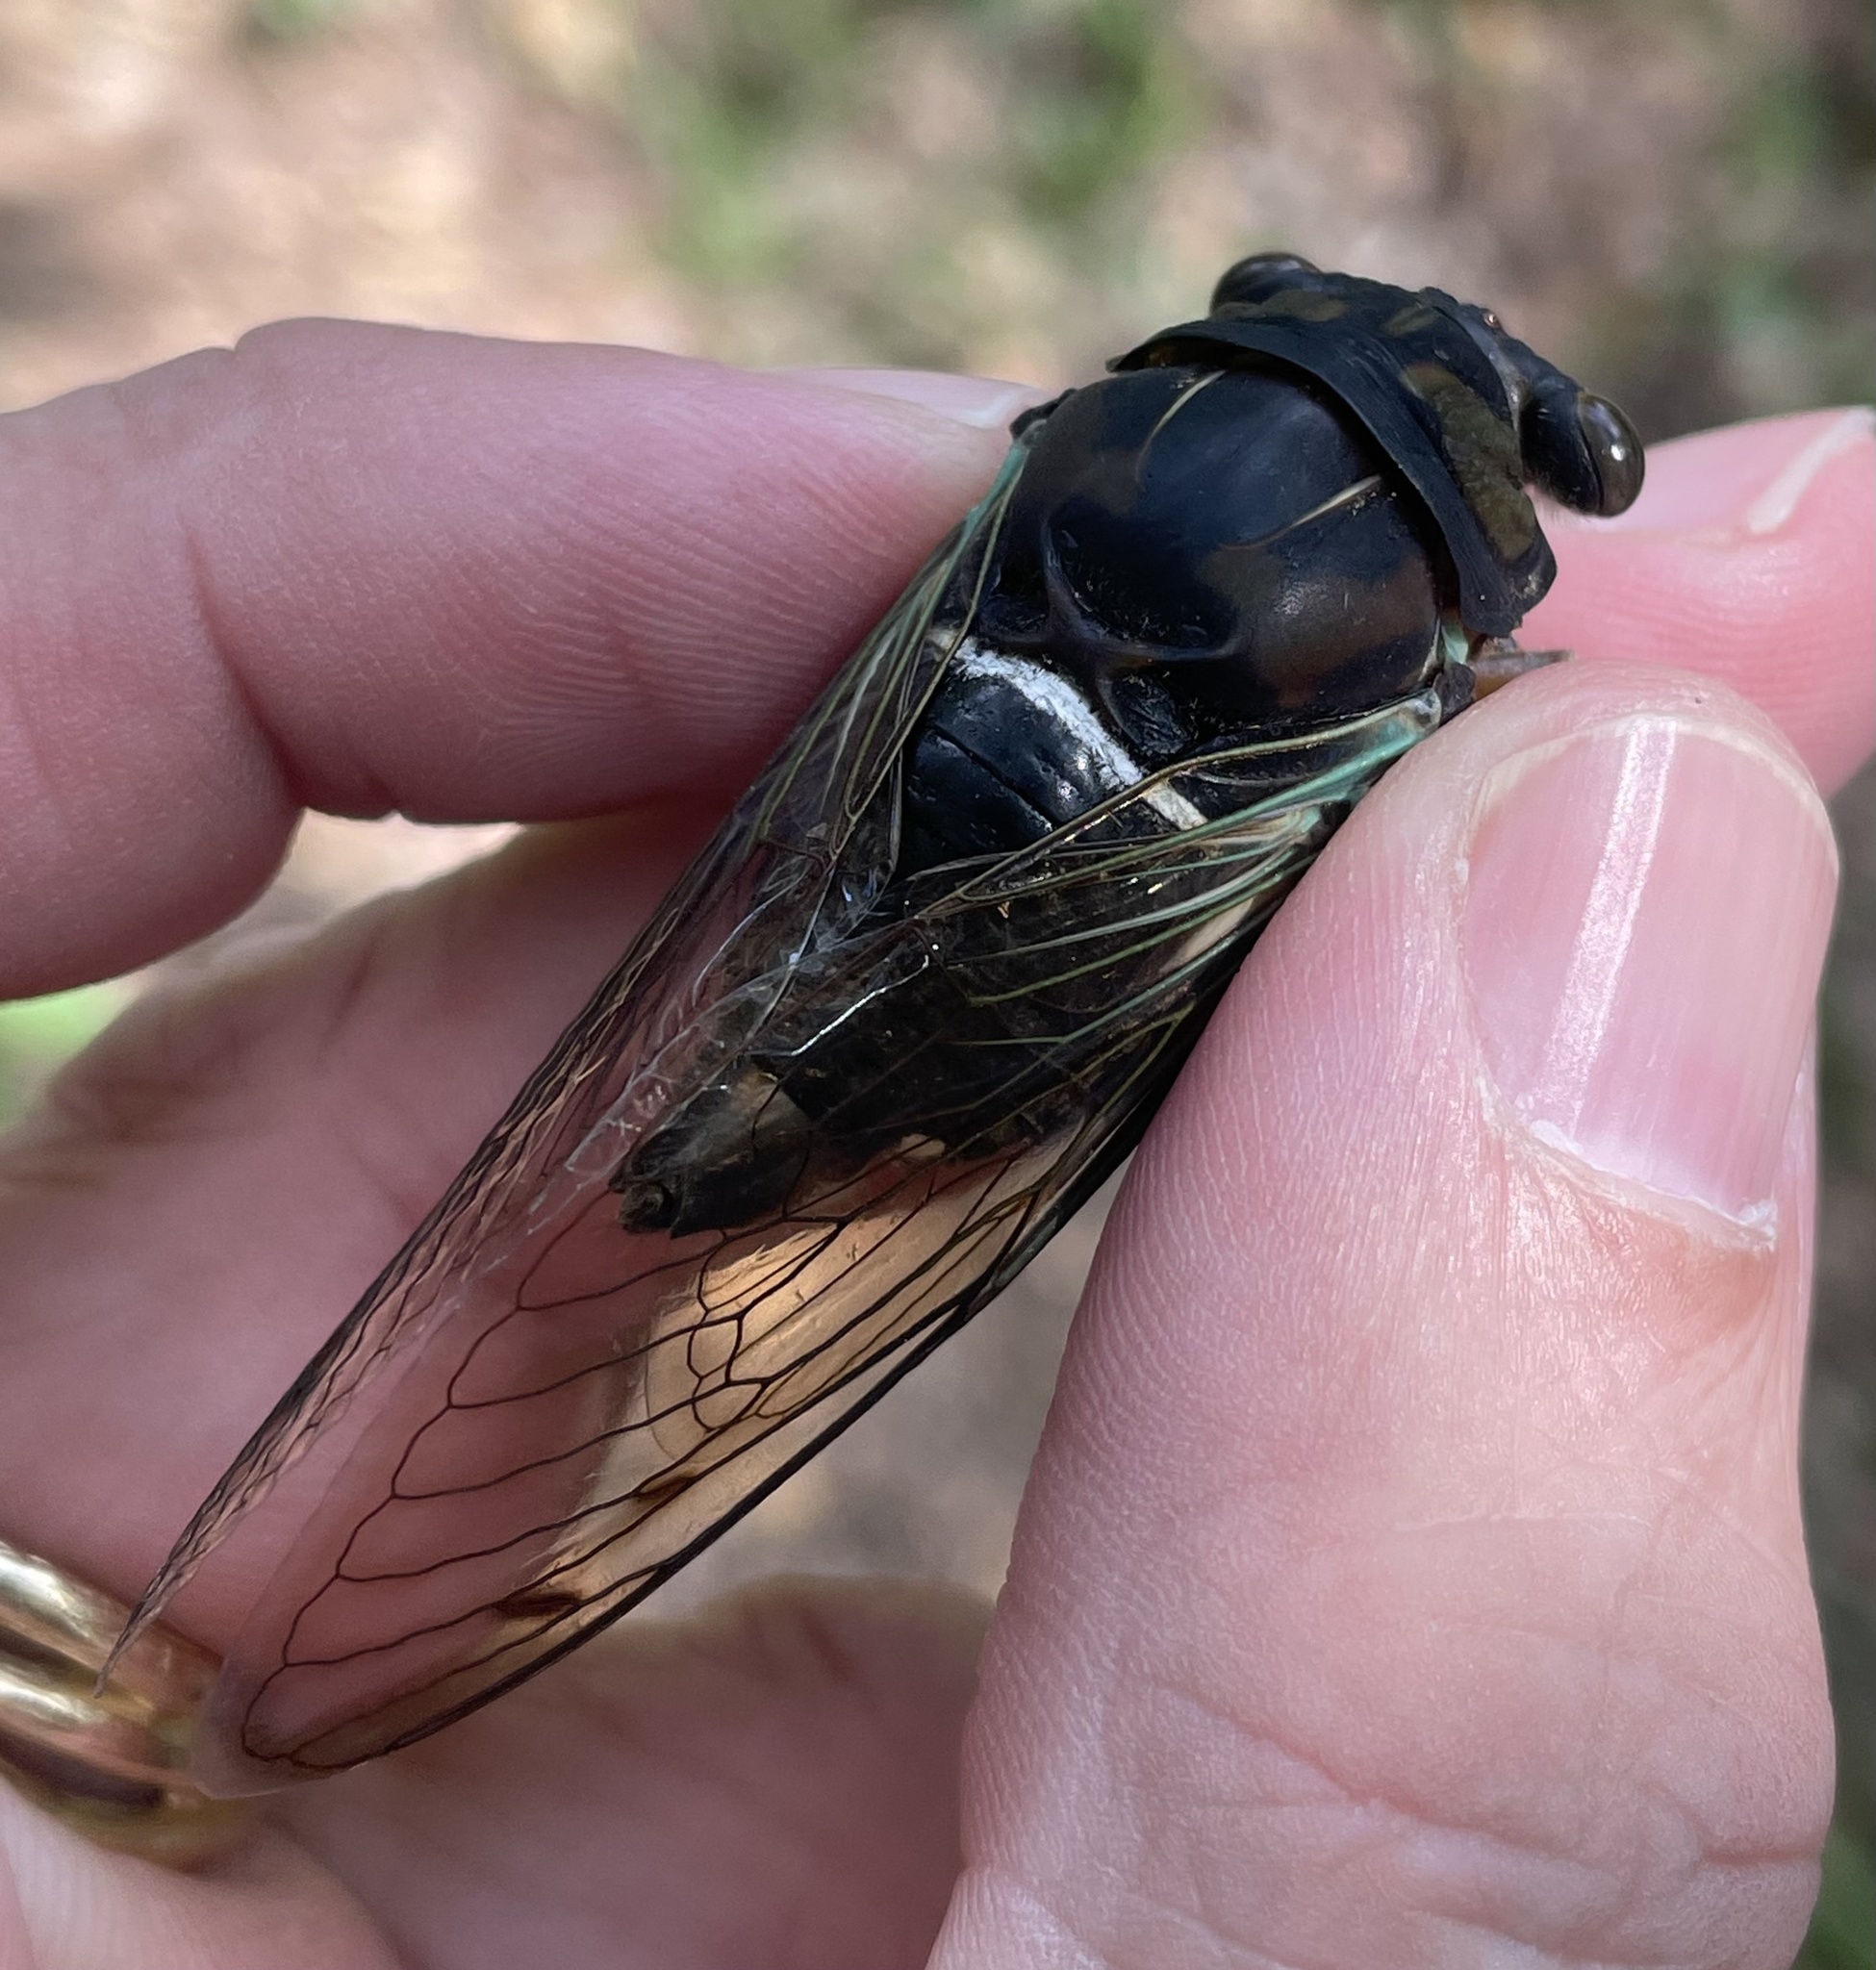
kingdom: Animalia
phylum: Arthropoda
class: Insecta
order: Hemiptera
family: Cicadidae
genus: Neotibicen
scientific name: Neotibicen lyricen
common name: Lyric cicada
